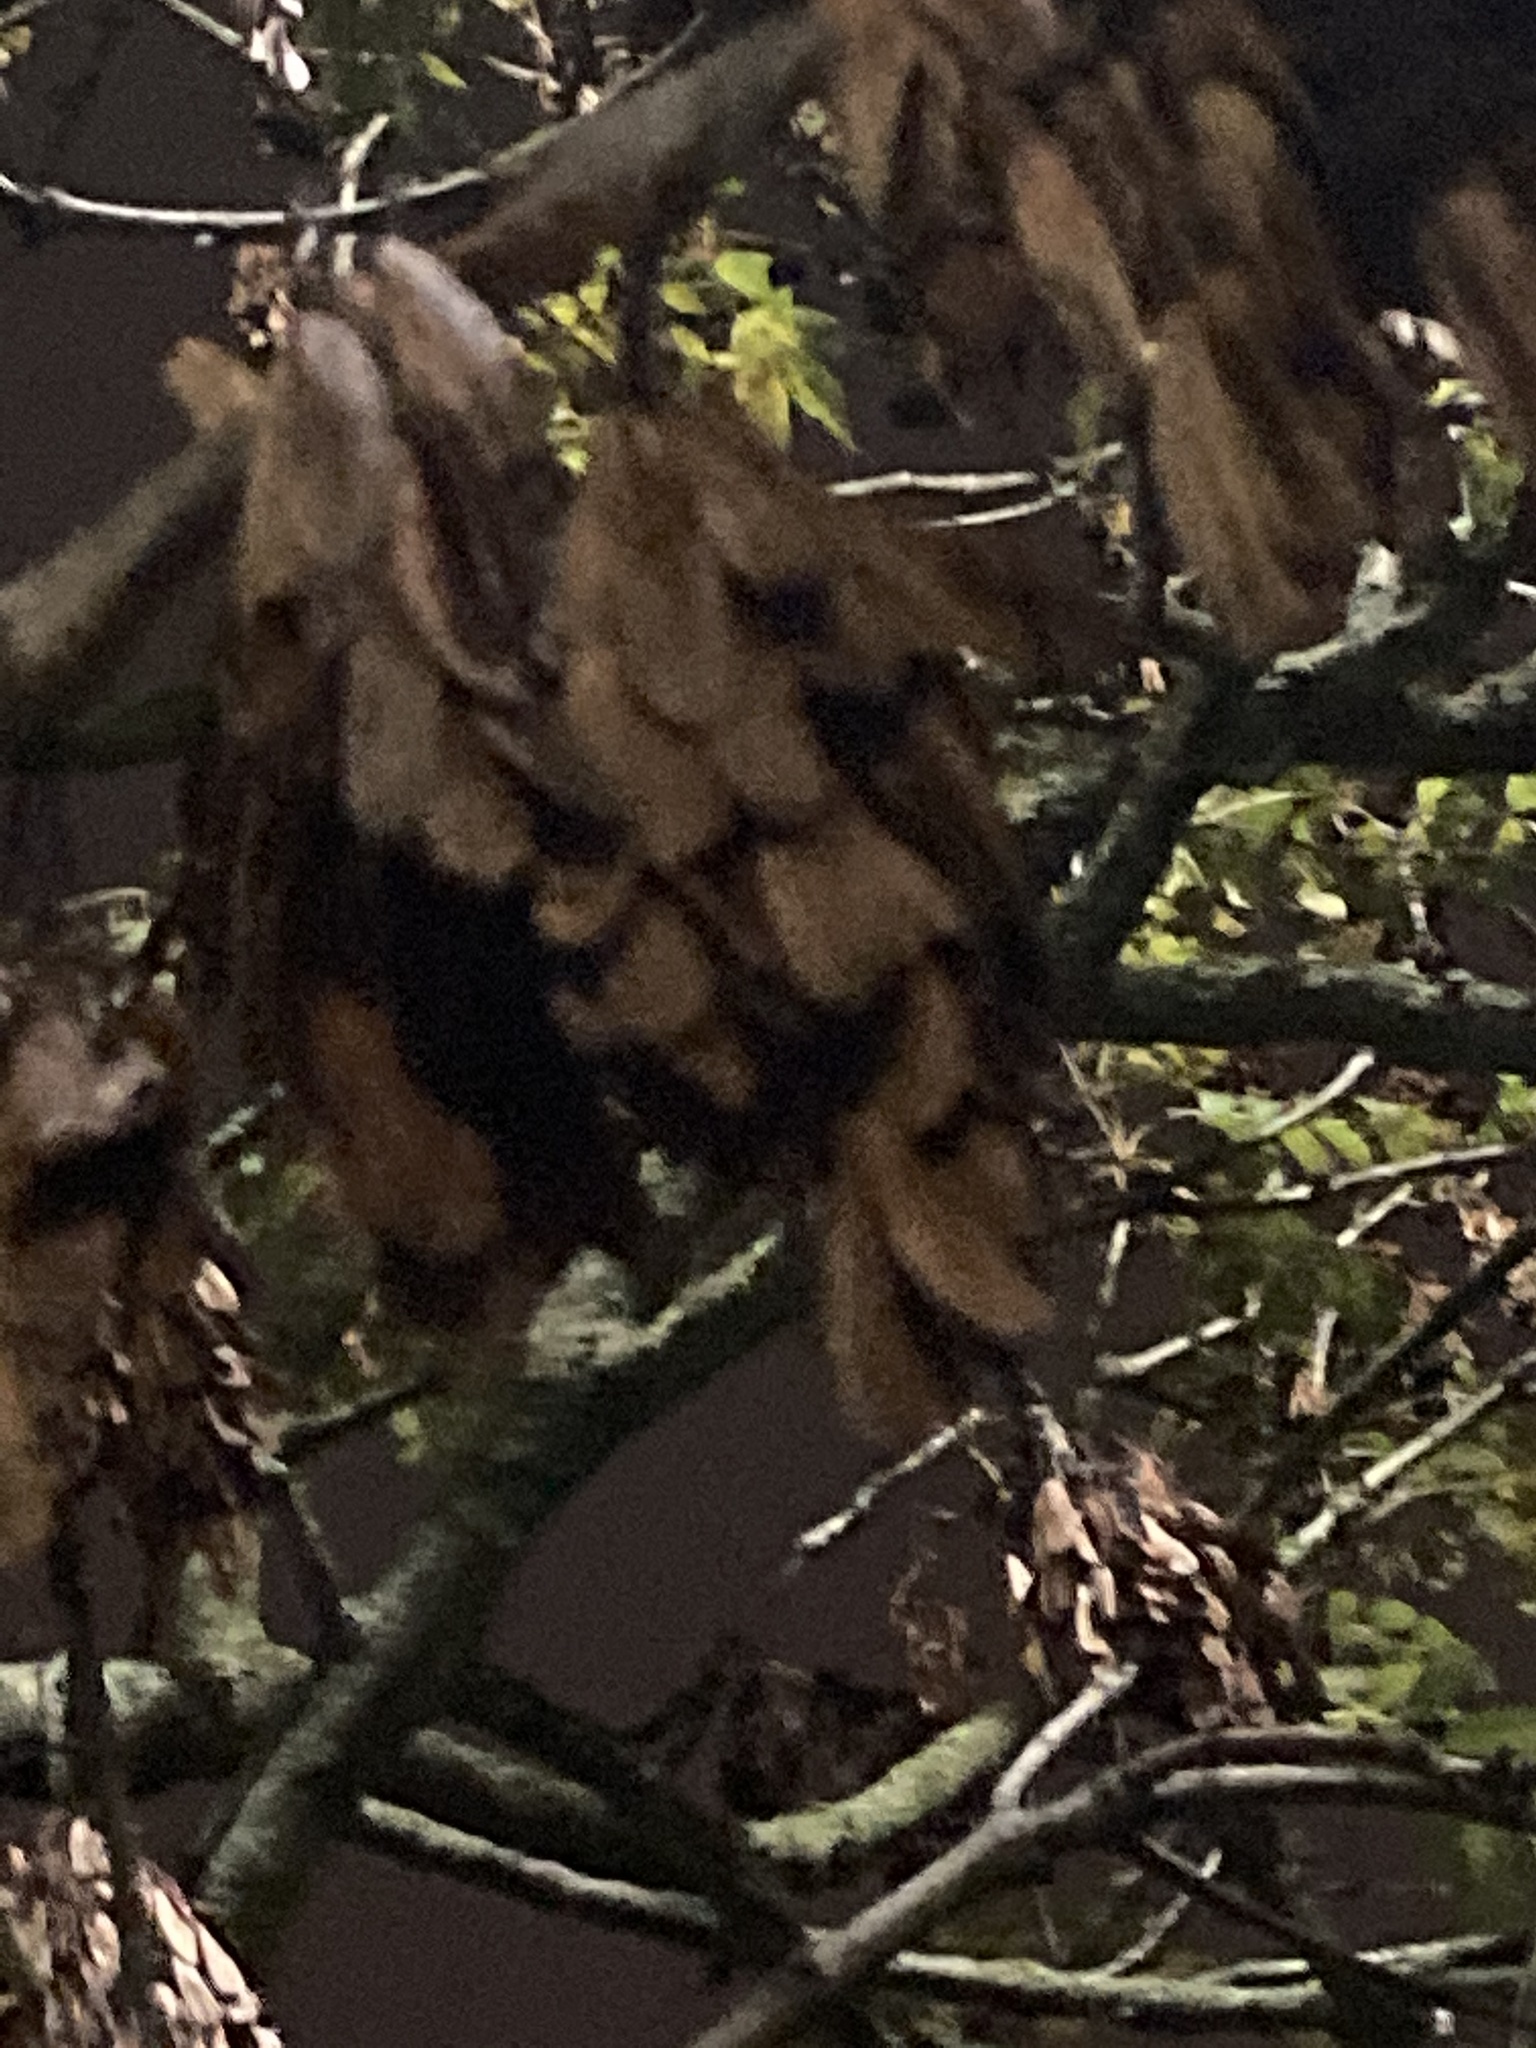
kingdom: Plantae
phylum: Tracheophyta
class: Magnoliopsida
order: Lamiales
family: Oleaceae
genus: Fraxinus
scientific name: Fraxinus excelsior
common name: European ash
